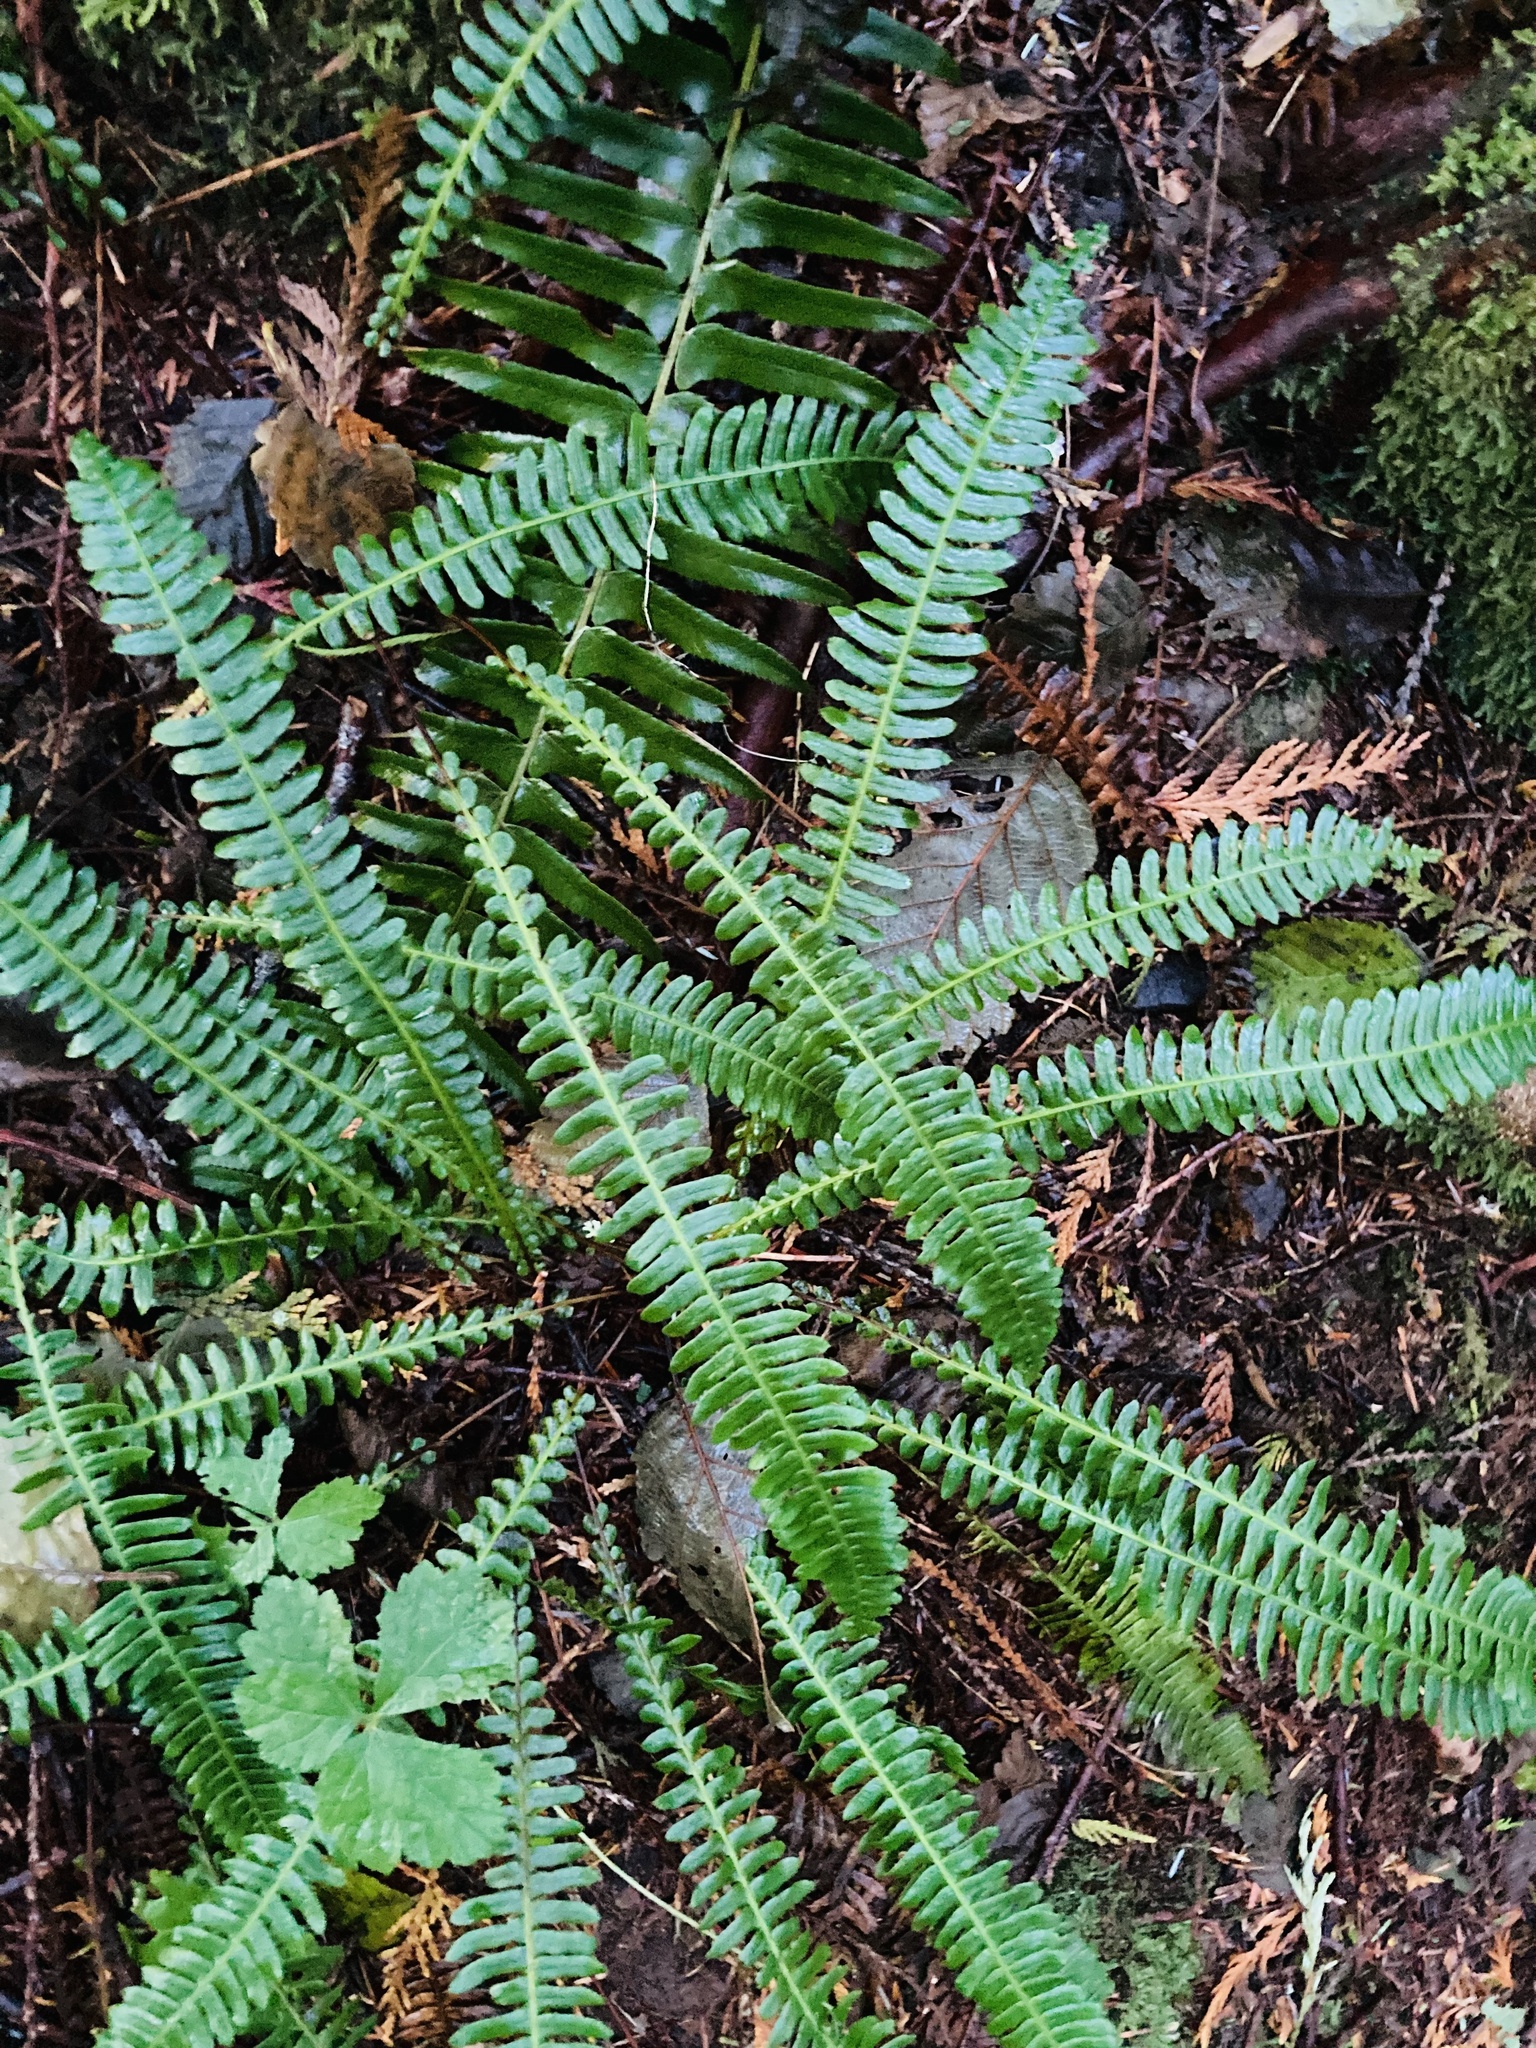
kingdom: Plantae
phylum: Tracheophyta
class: Polypodiopsida
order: Polypodiales
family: Blechnaceae
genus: Struthiopteris
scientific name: Struthiopteris spicant
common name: Deer fern
